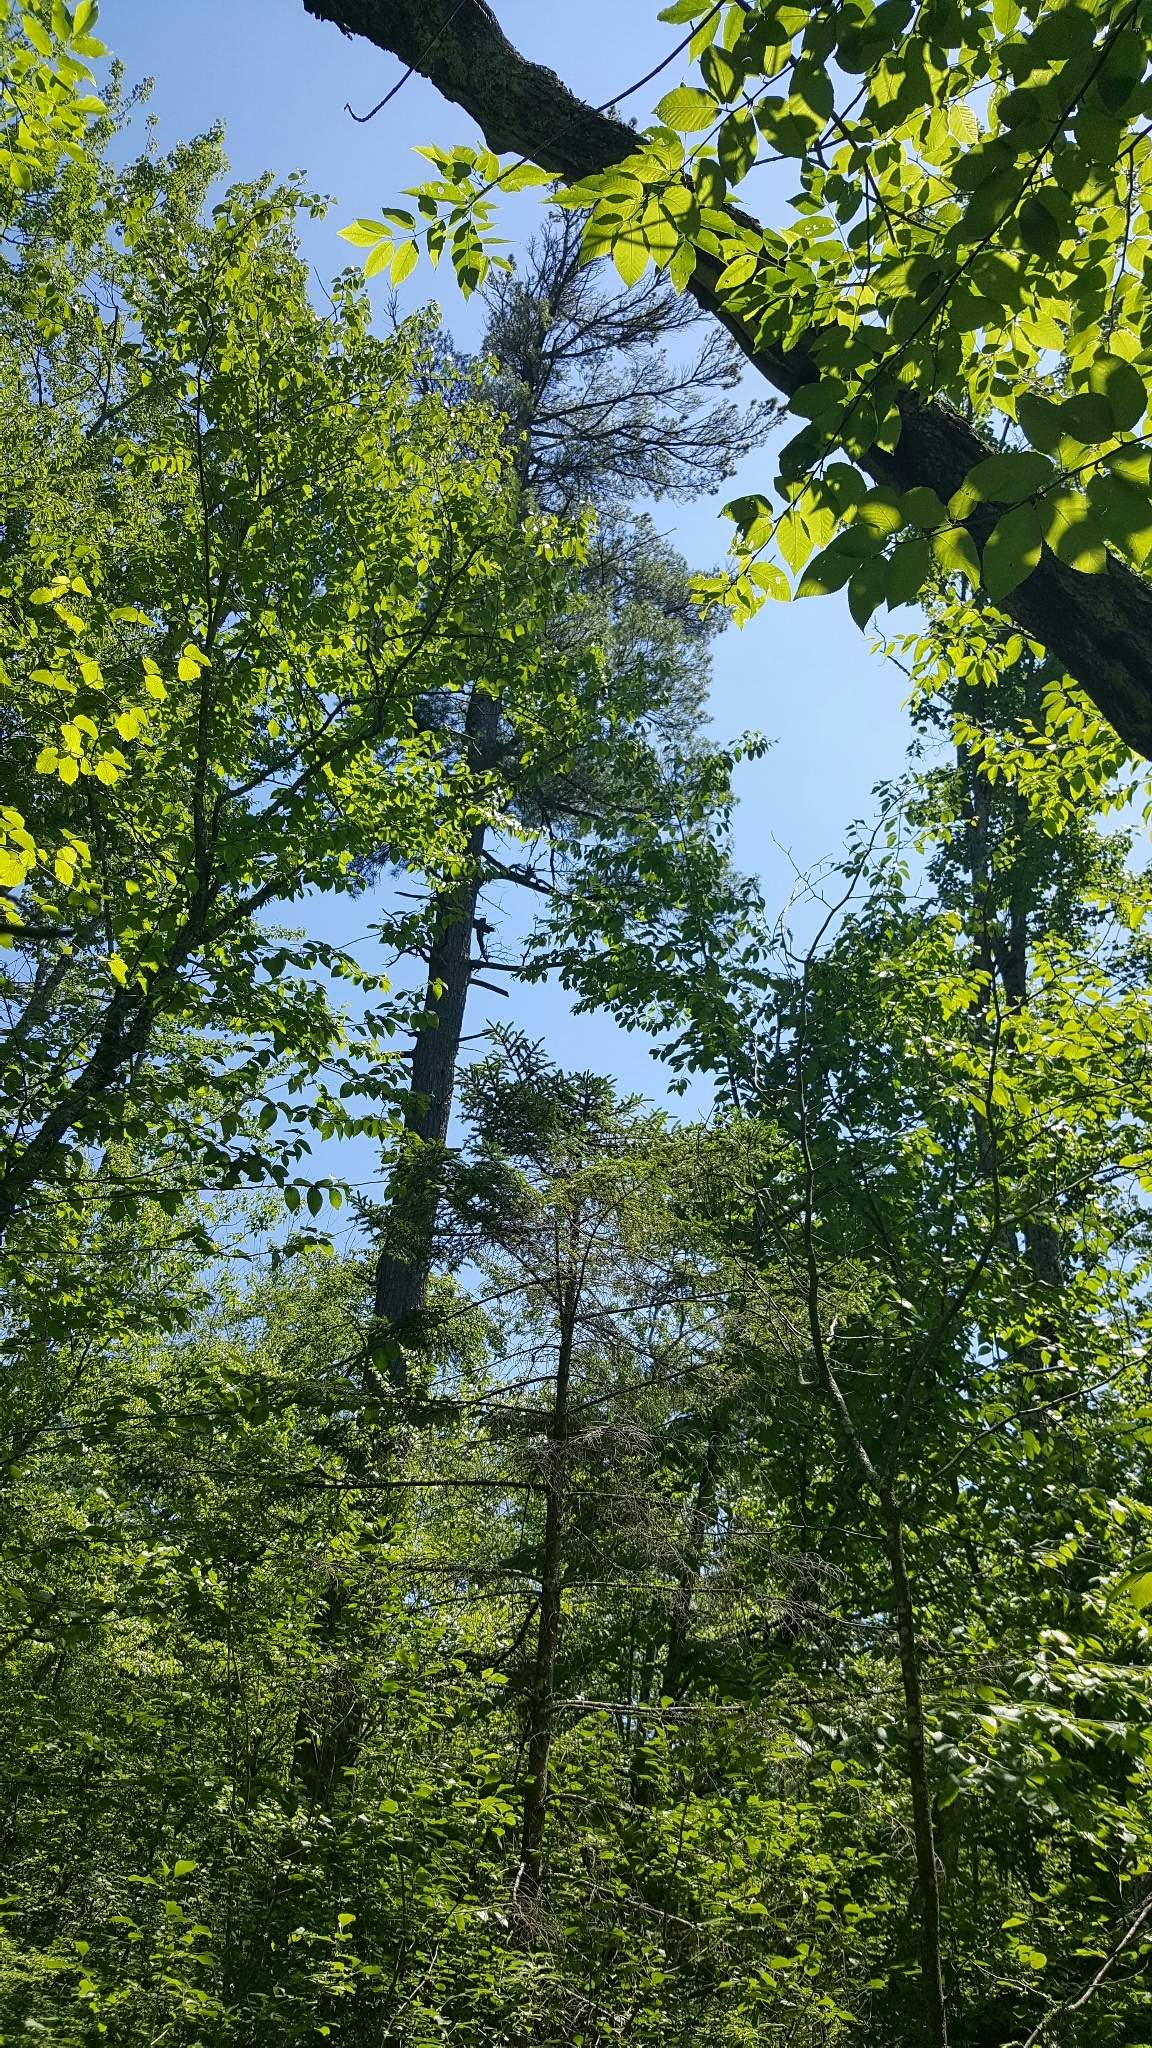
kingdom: Plantae
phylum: Tracheophyta
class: Pinopsida
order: Pinales
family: Pinaceae
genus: Pinus
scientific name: Pinus strobus
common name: Weymouth pine
